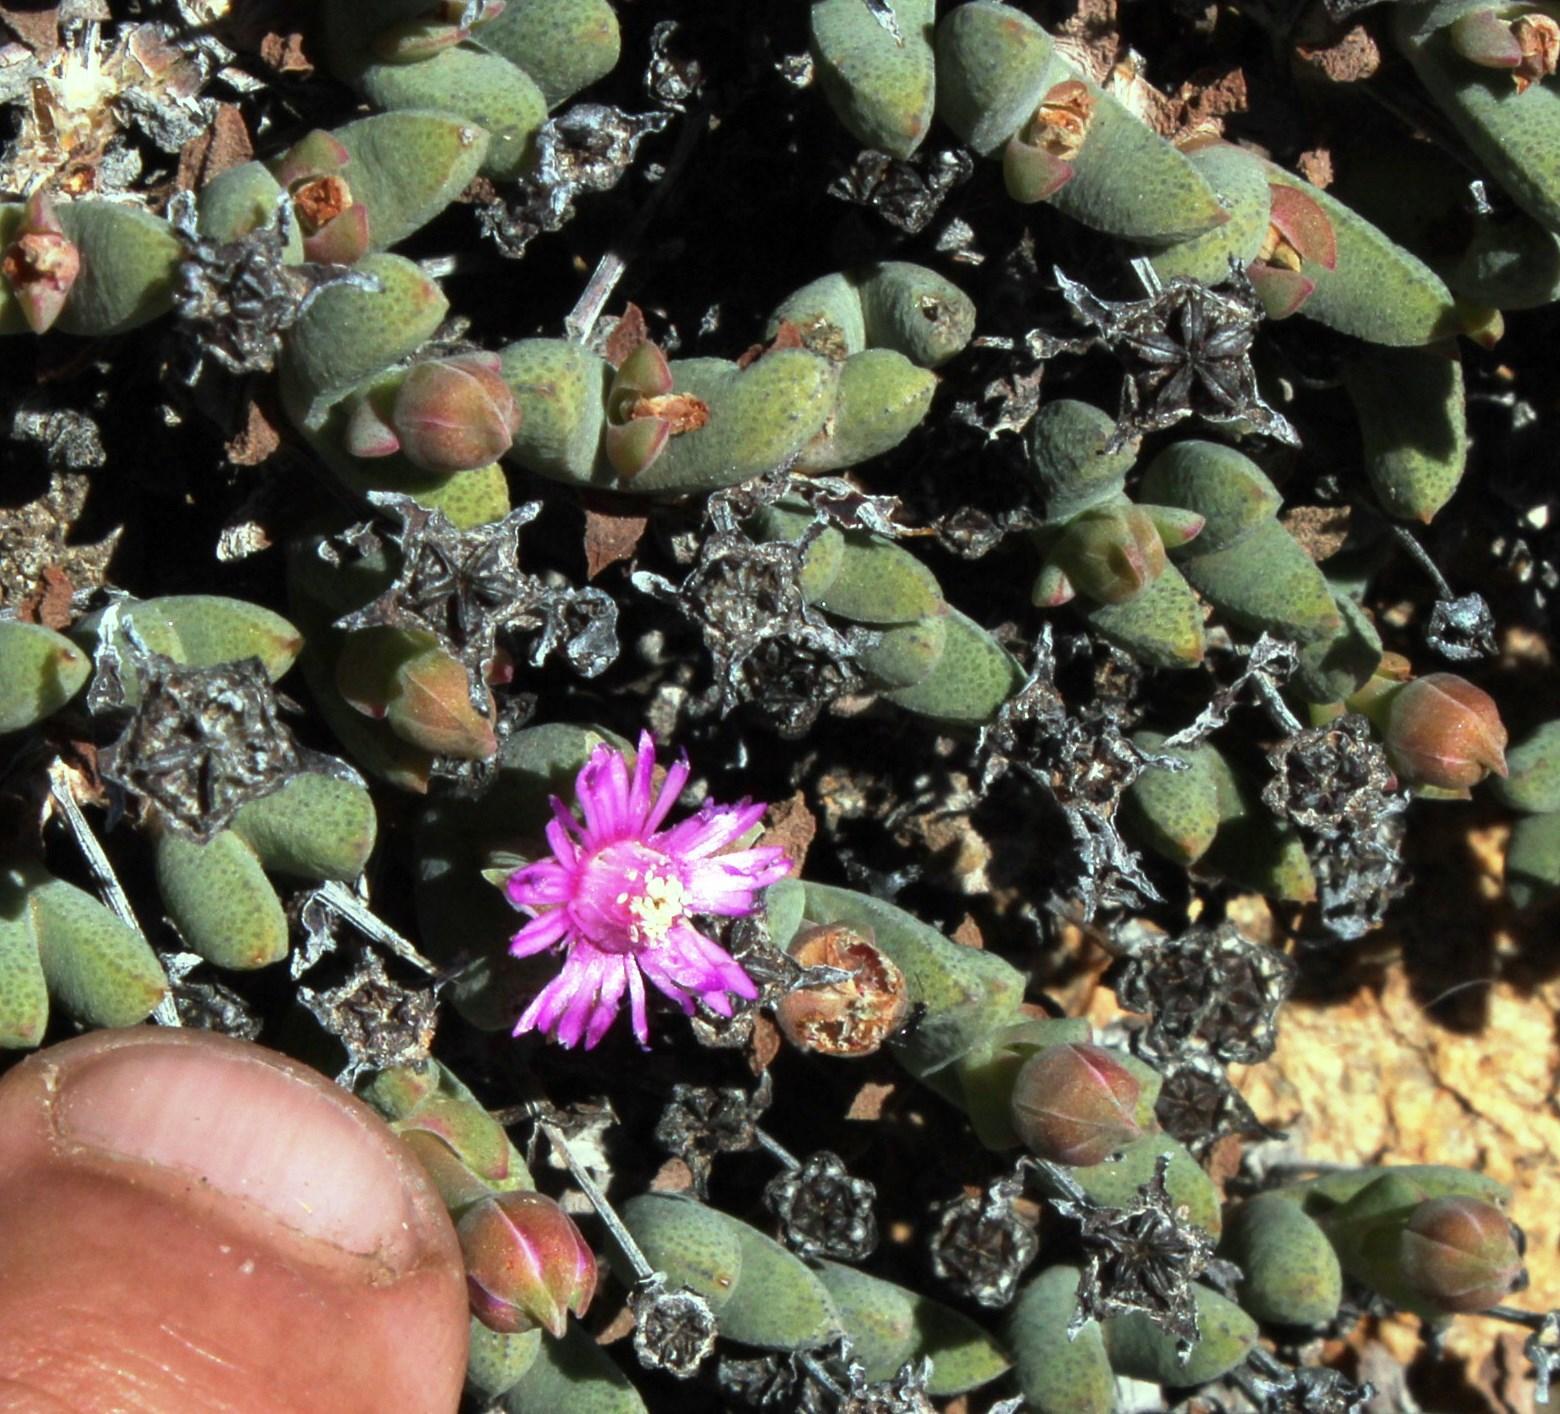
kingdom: Plantae
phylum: Tracheophyta
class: Magnoliopsida
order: Caryophyllales
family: Aizoaceae
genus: Antimima
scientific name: Antimima perforata
